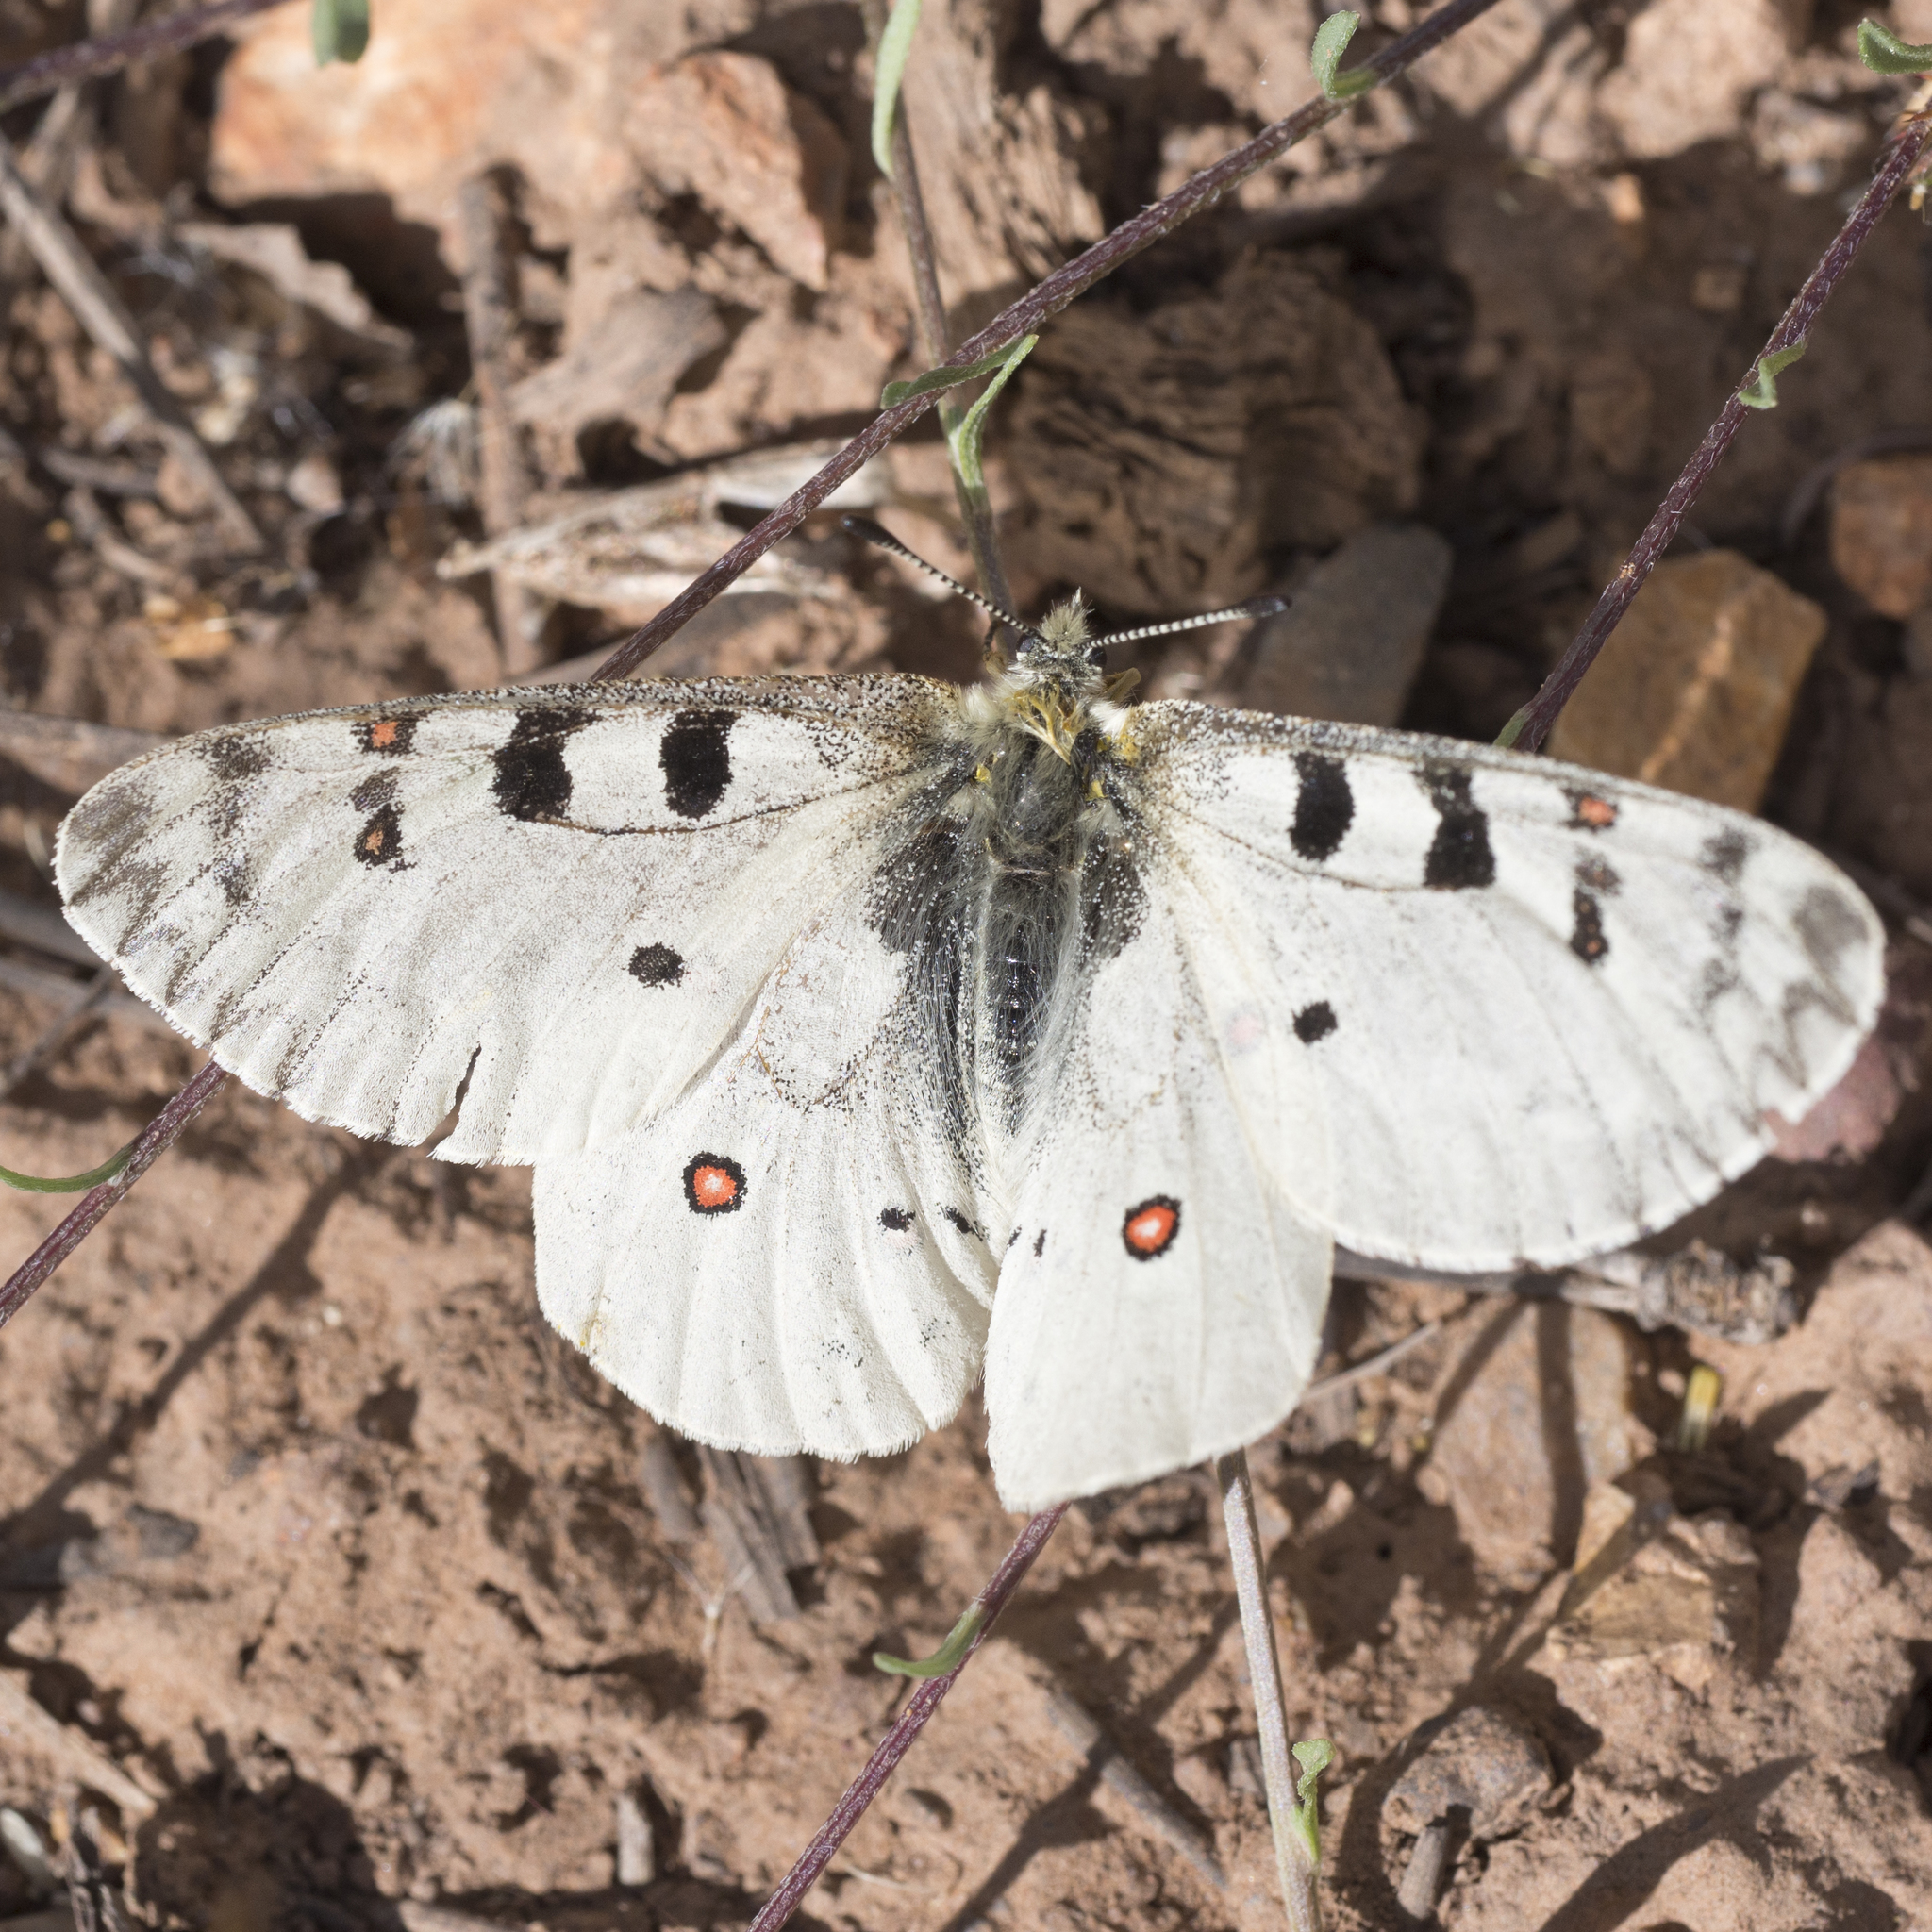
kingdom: Animalia
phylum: Arthropoda
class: Insecta
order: Lepidoptera
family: Papilionidae
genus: Parnassius
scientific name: Parnassius smintheus
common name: Mountain parnassian
